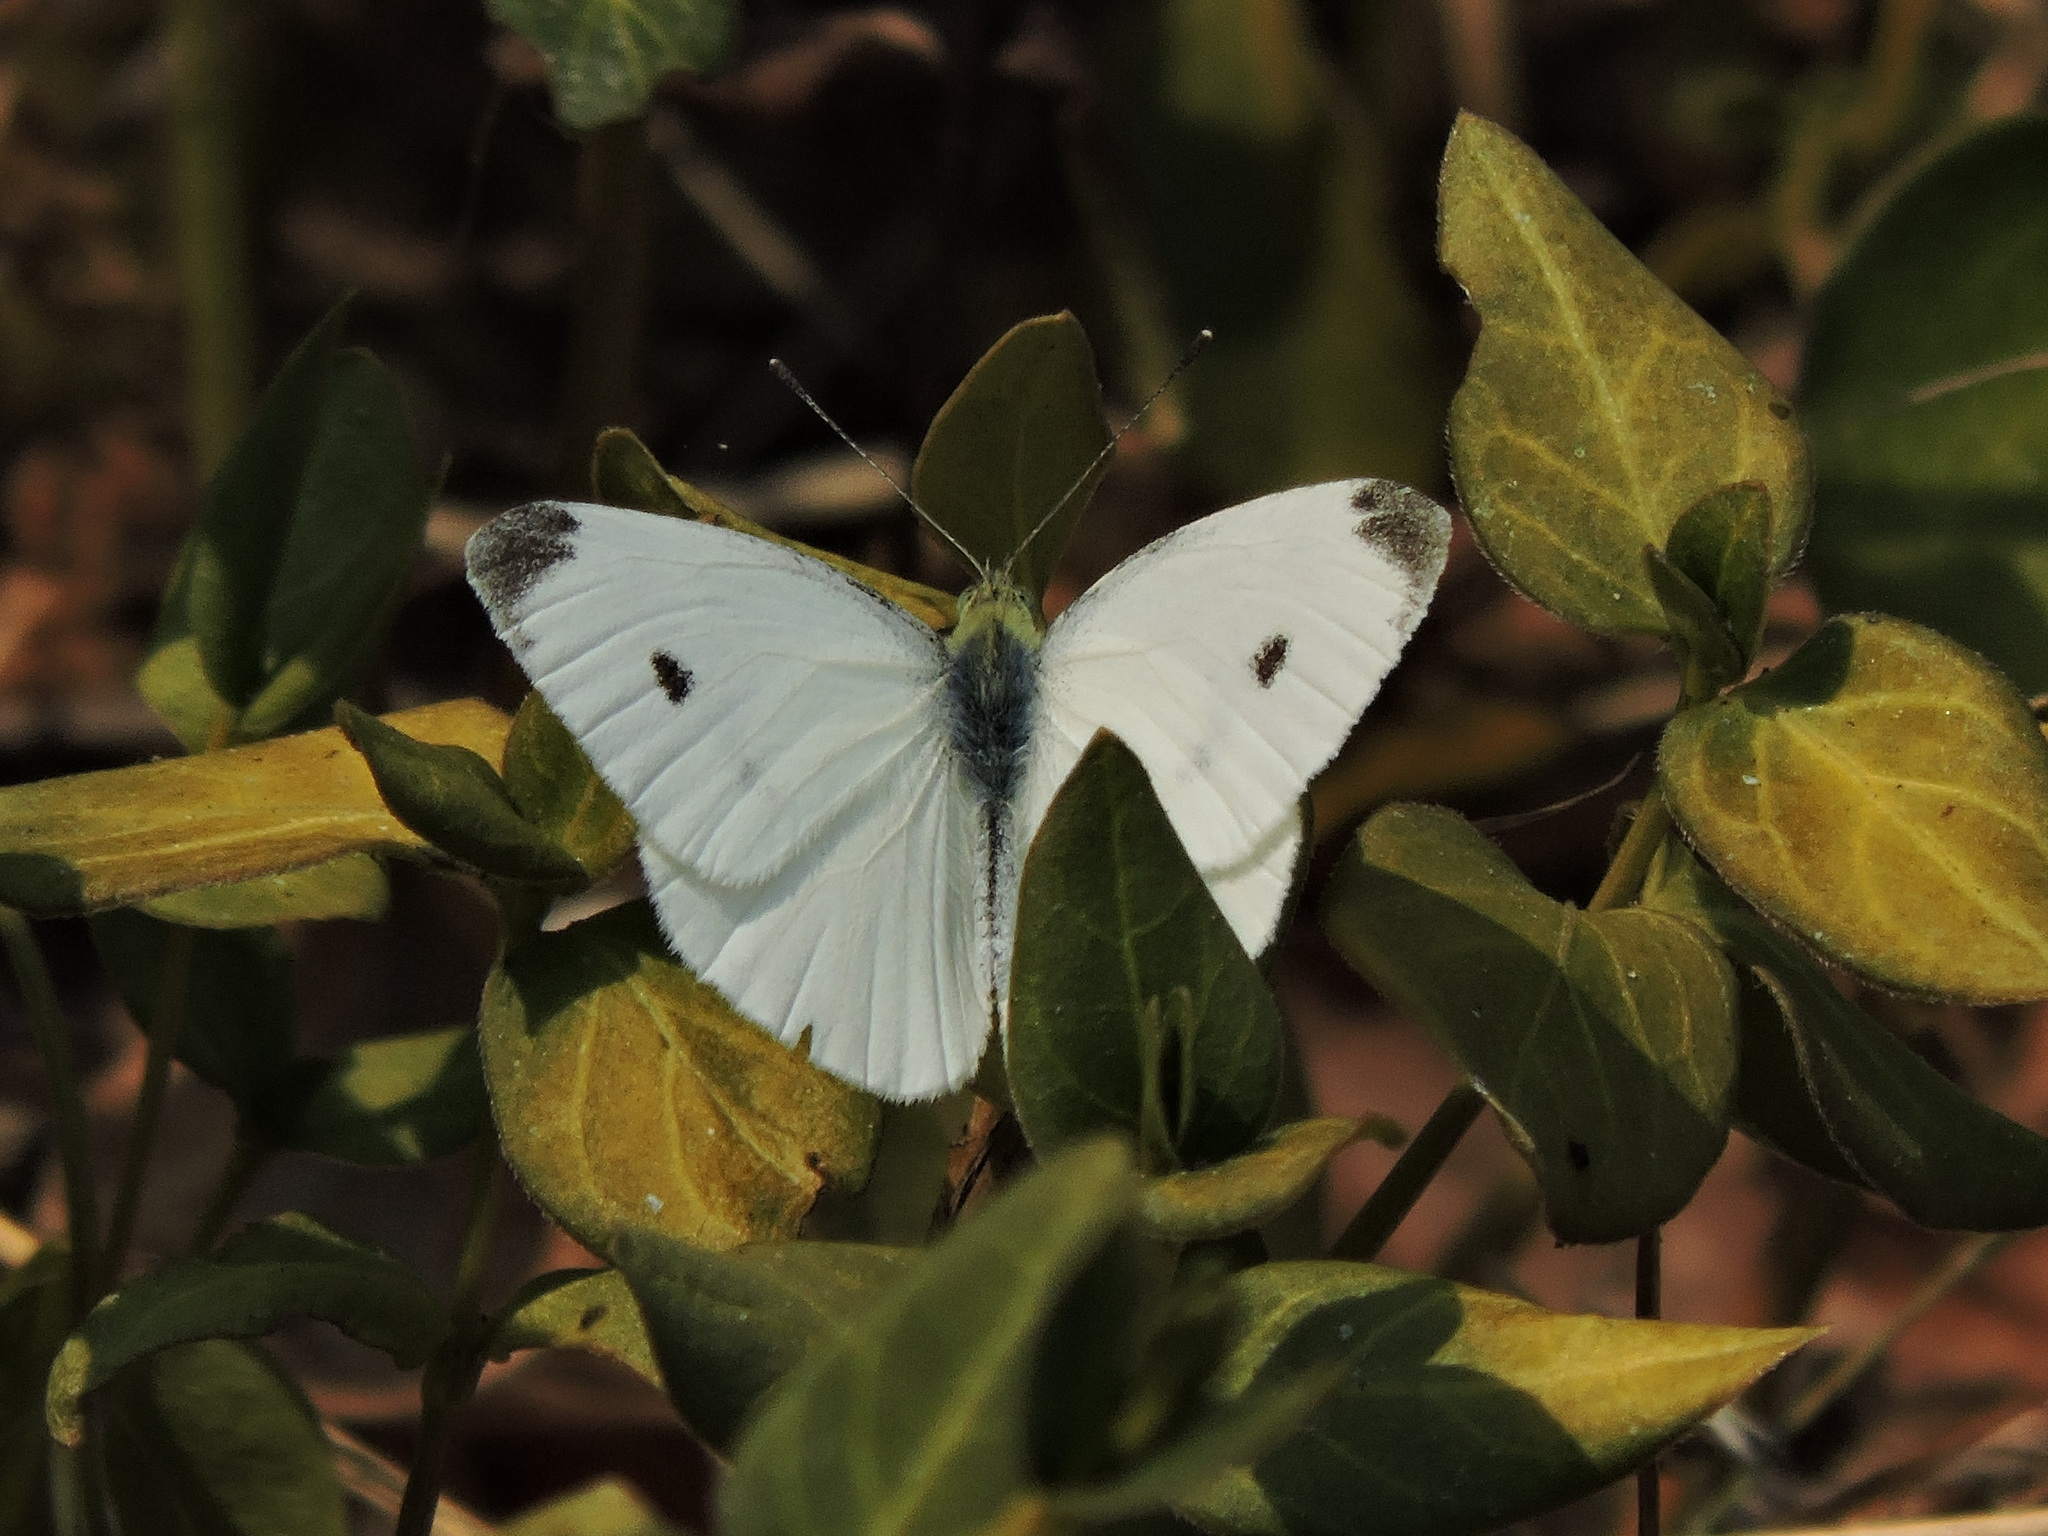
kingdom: Animalia
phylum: Arthropoda
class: Insecta
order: Lepidoptera
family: Pieridae
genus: Pieris
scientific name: Pieris rapae
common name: Small white
